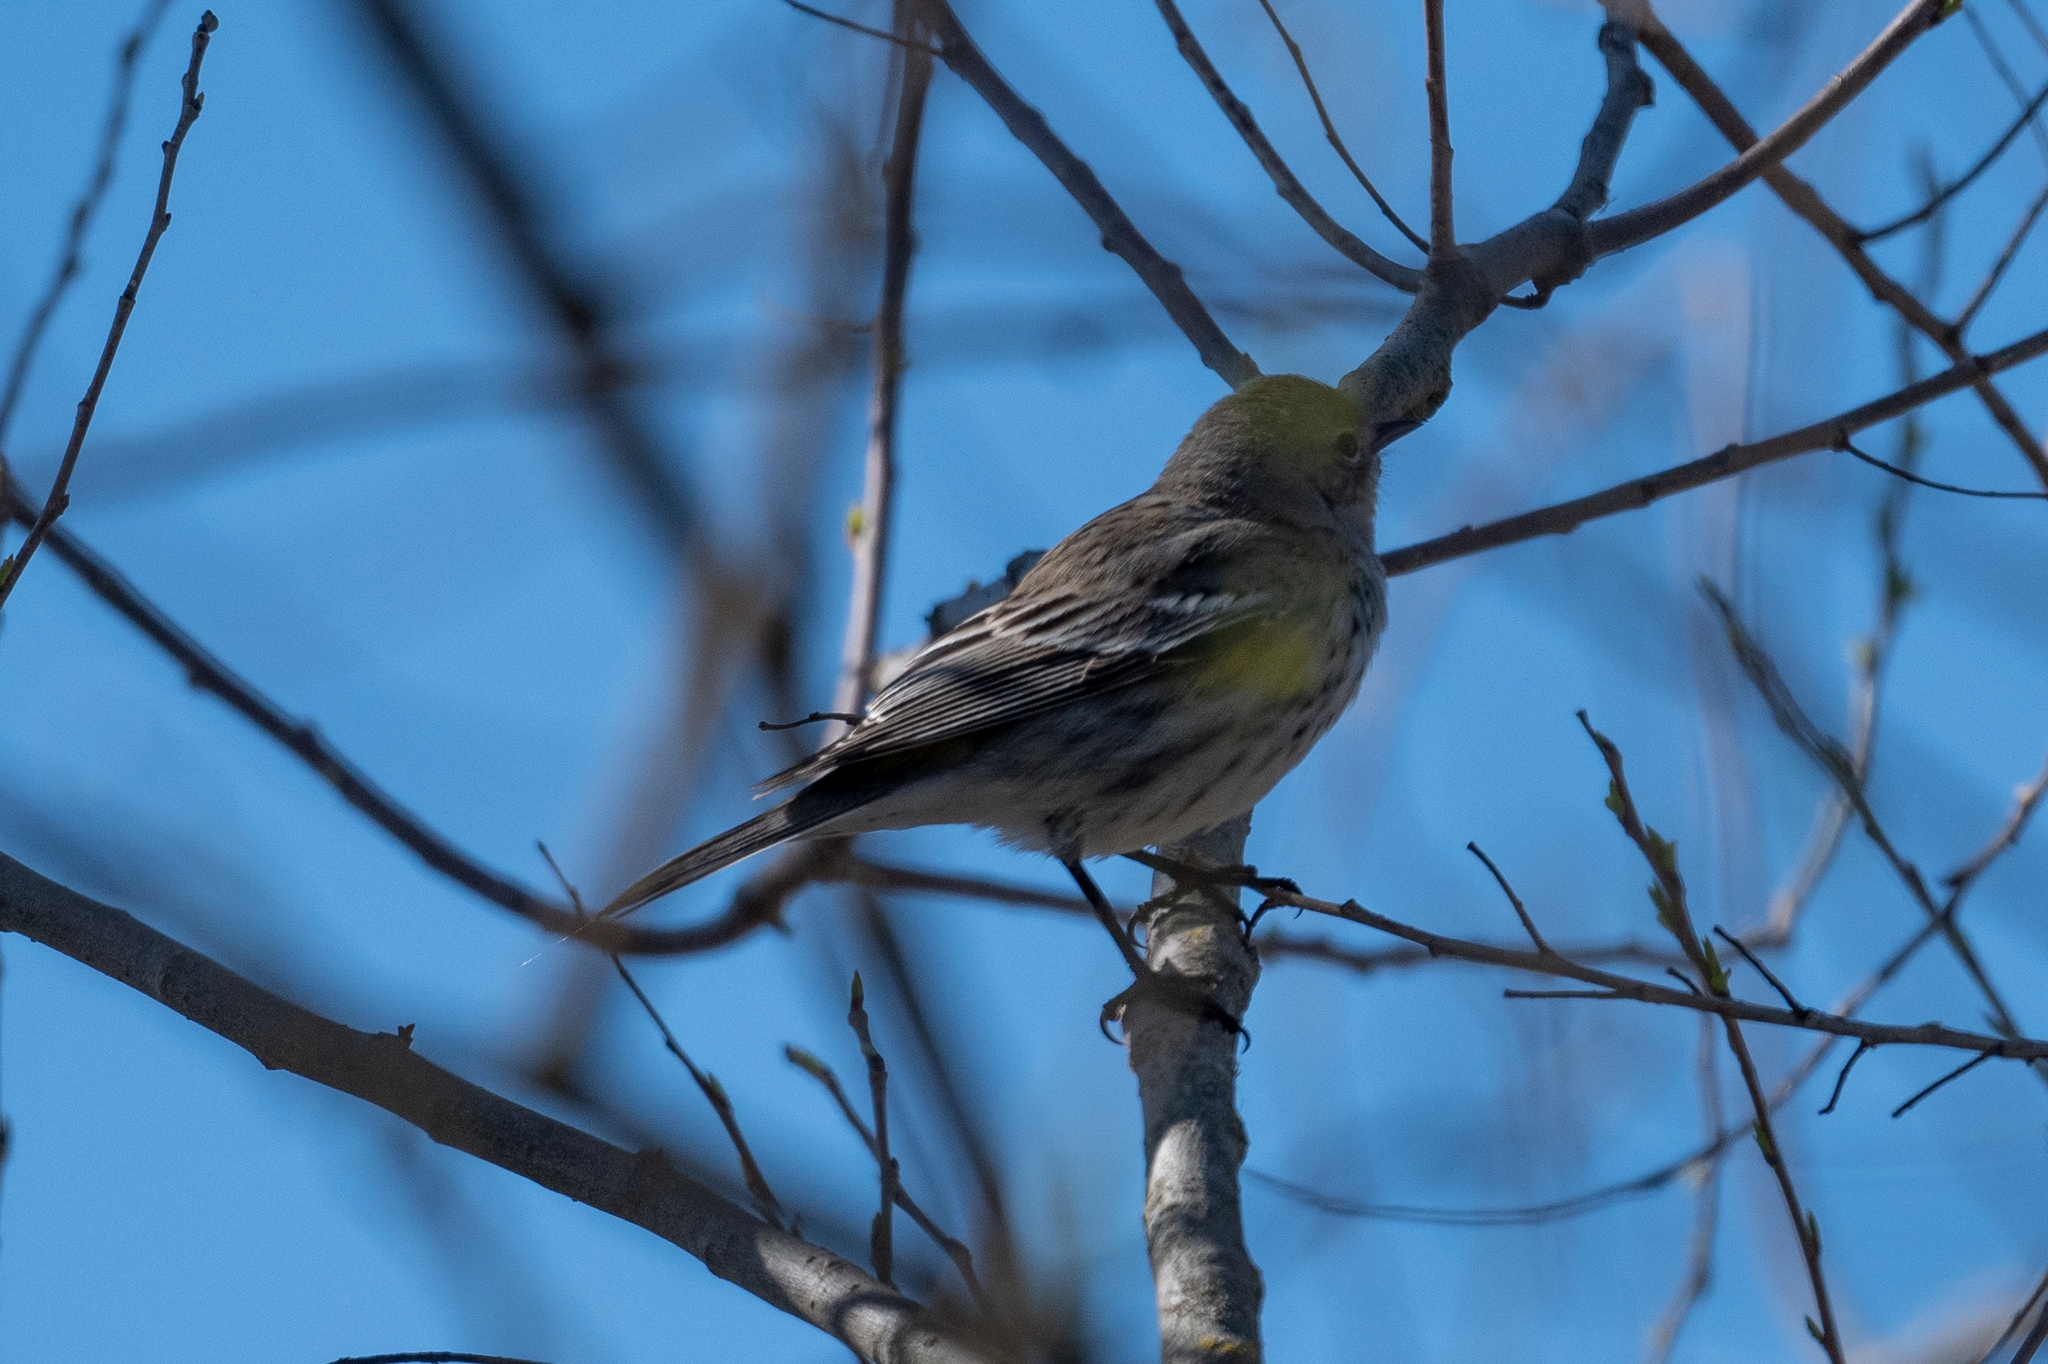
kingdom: Animalia
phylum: Chordata
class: Aves
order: Passeriformes
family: Parulidae
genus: Setophaga
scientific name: Setophaga coronata
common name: Myrtle warbler
